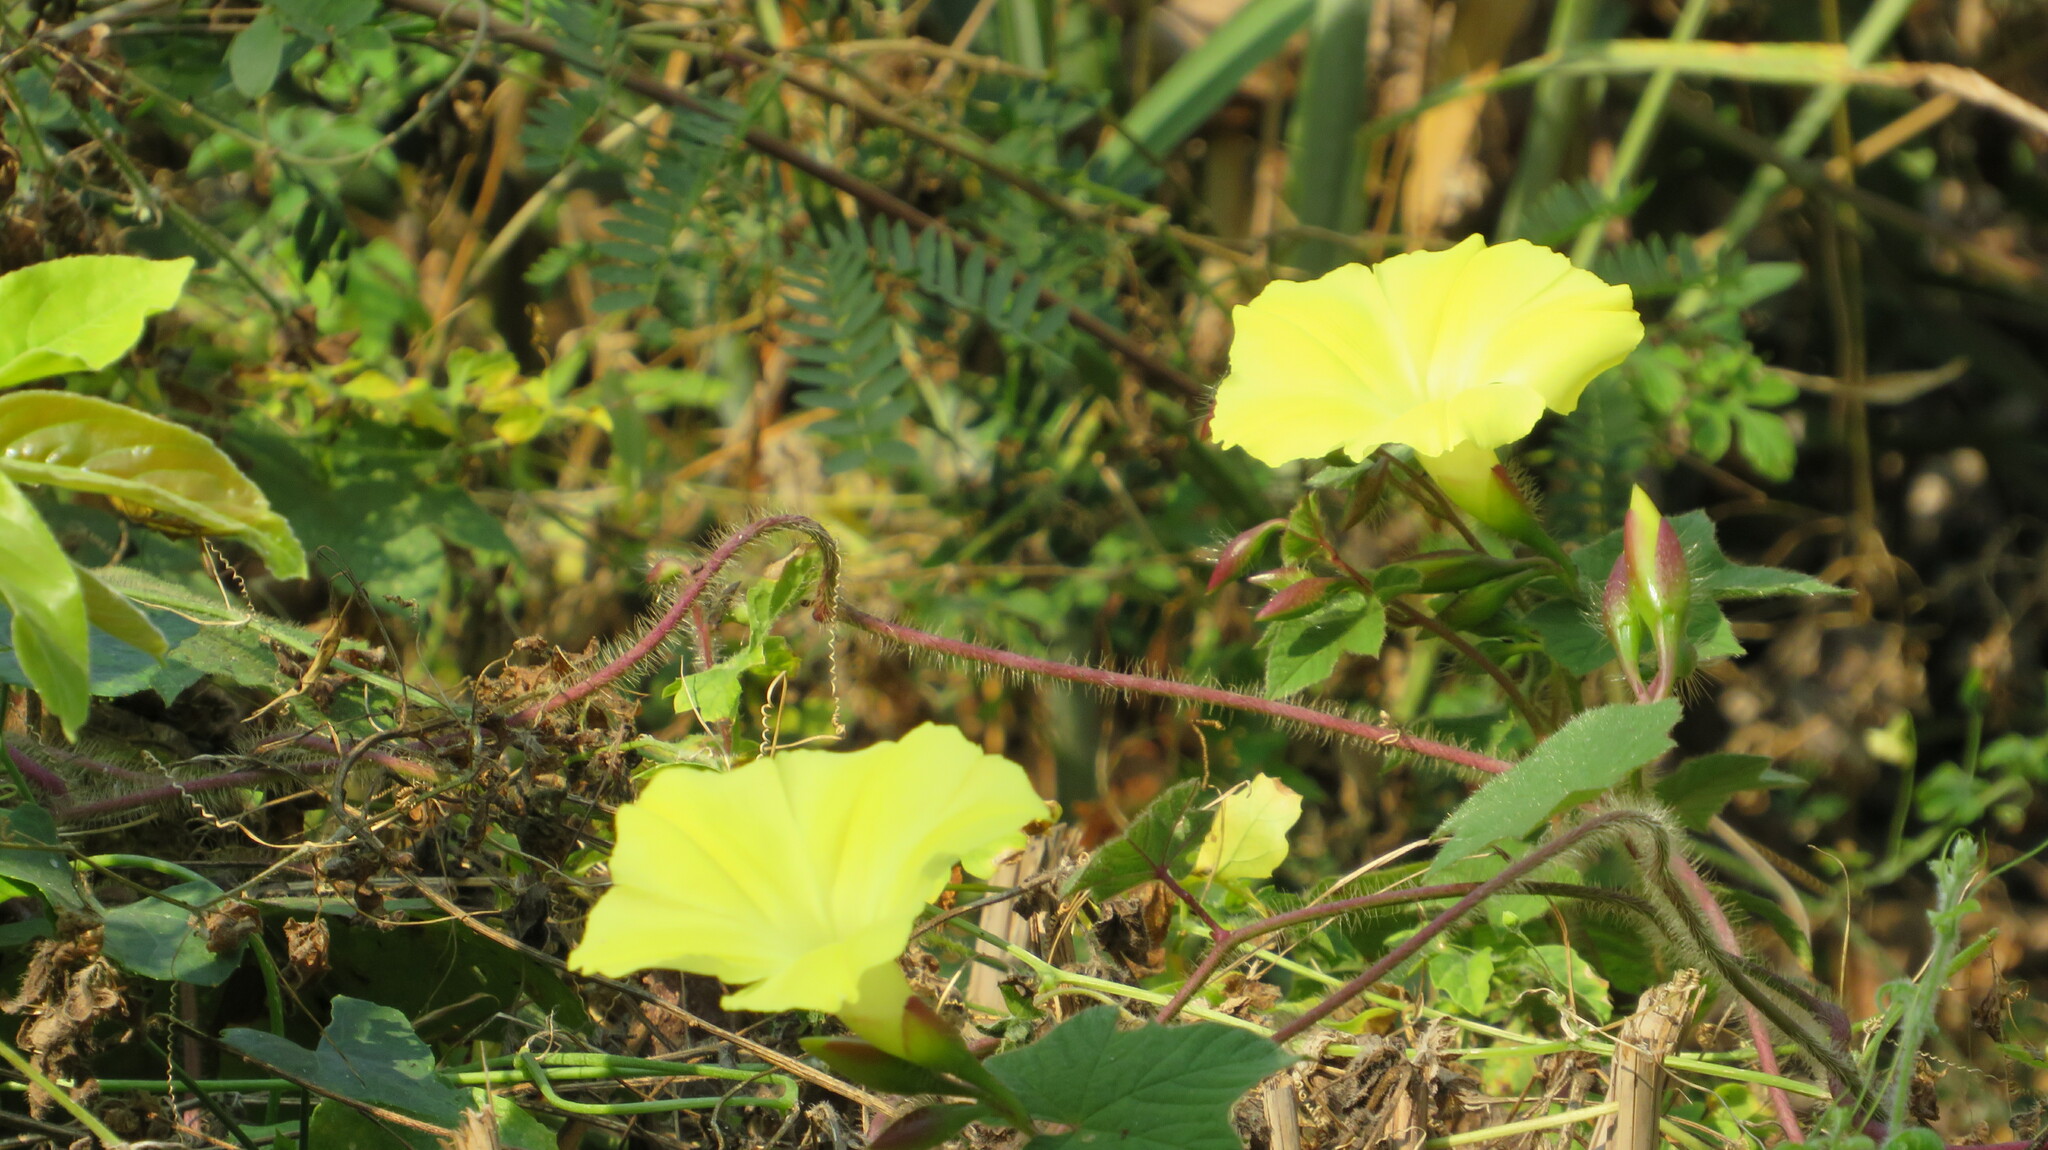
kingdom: Plantae
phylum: Tracheophyta
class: Magnoliopsida
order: Solanales
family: Convolvulaceae
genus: Distimake
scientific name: Distimake
